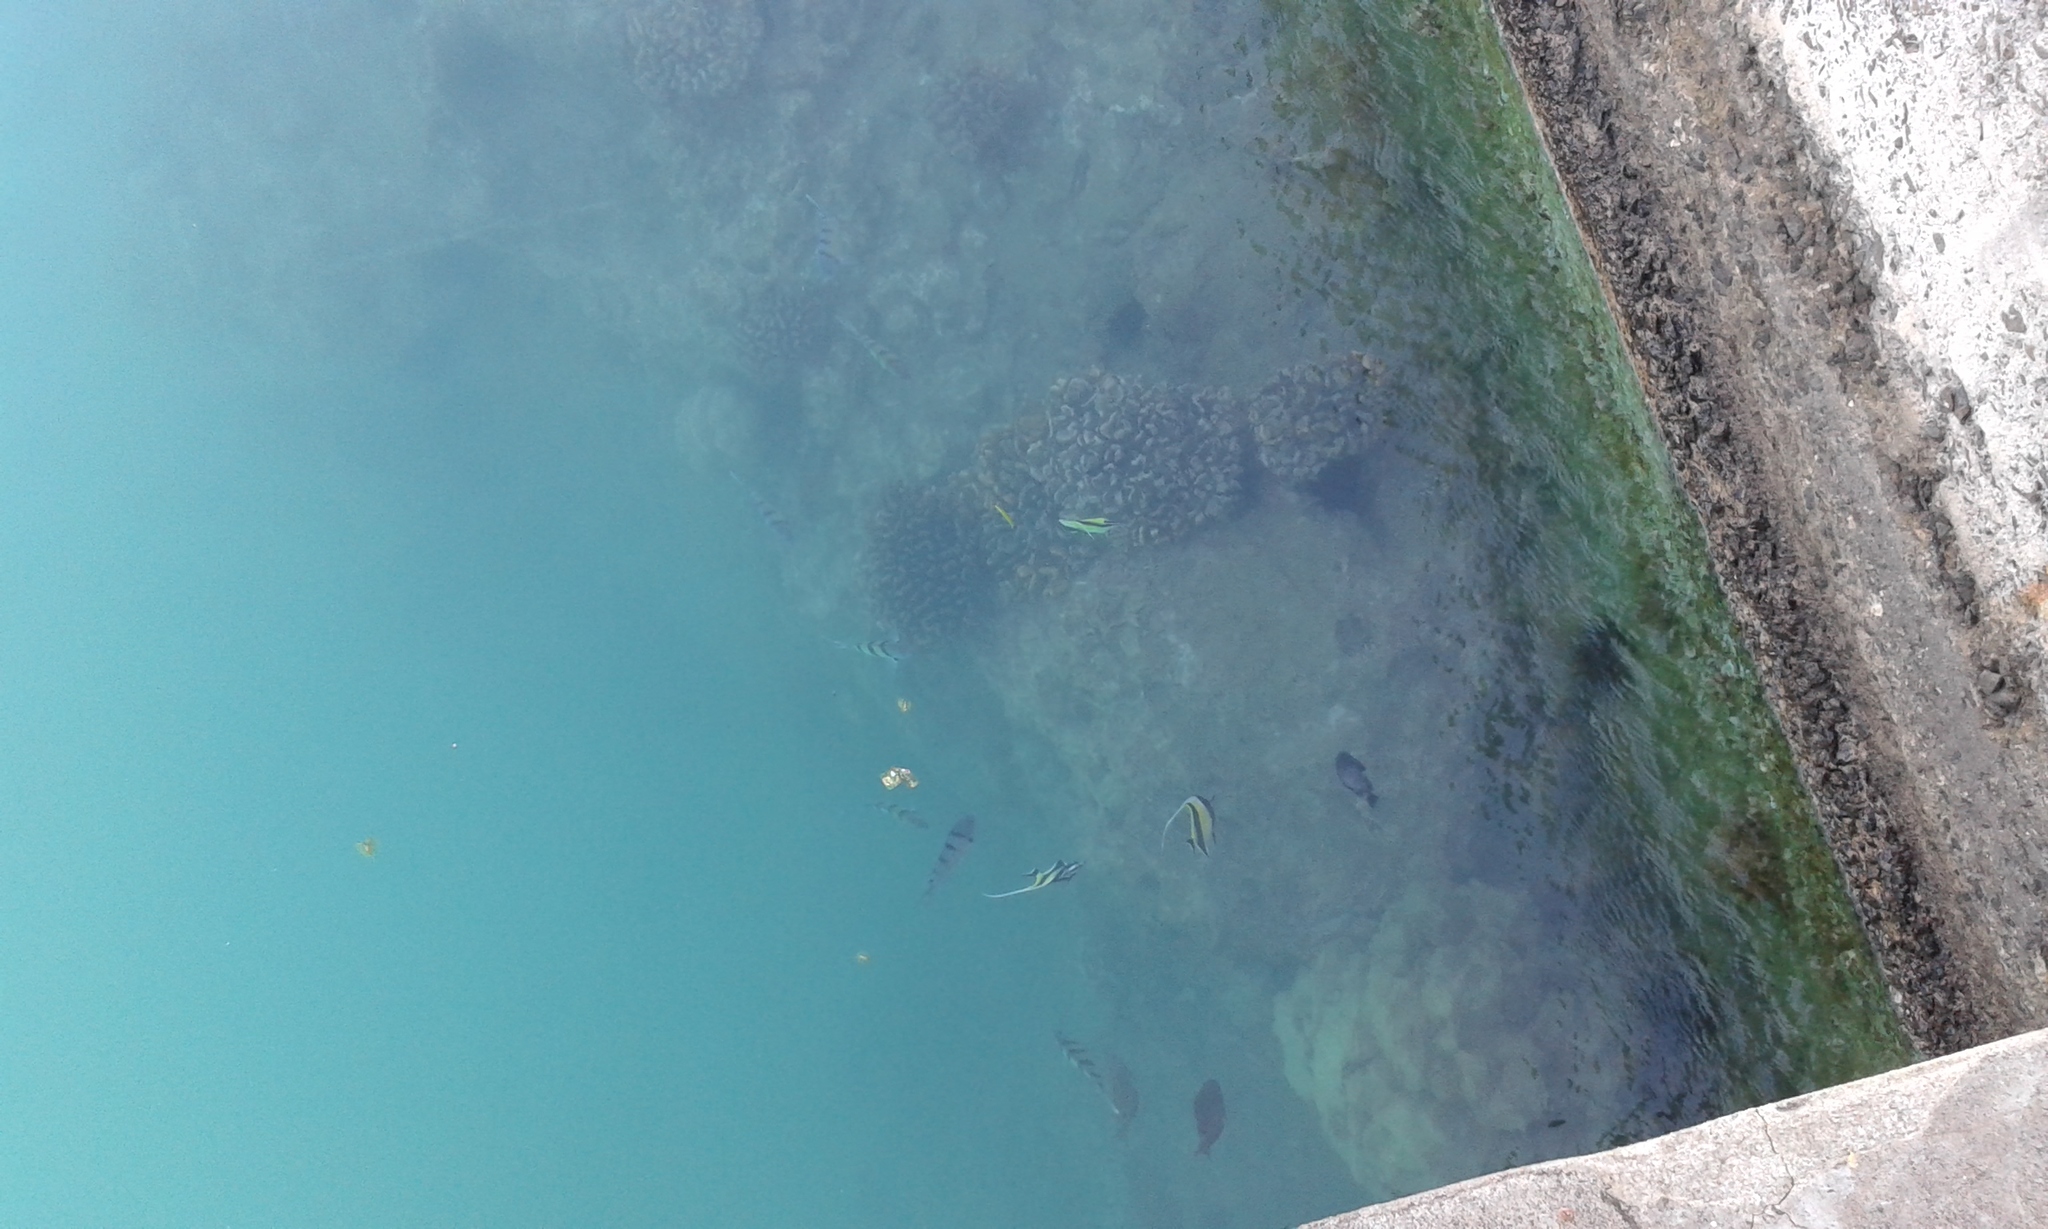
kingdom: Animalia
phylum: Chordata
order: Perciformes
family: Zanclidae
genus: Zanclus
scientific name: Zanclus cornutus
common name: Moorish idol
